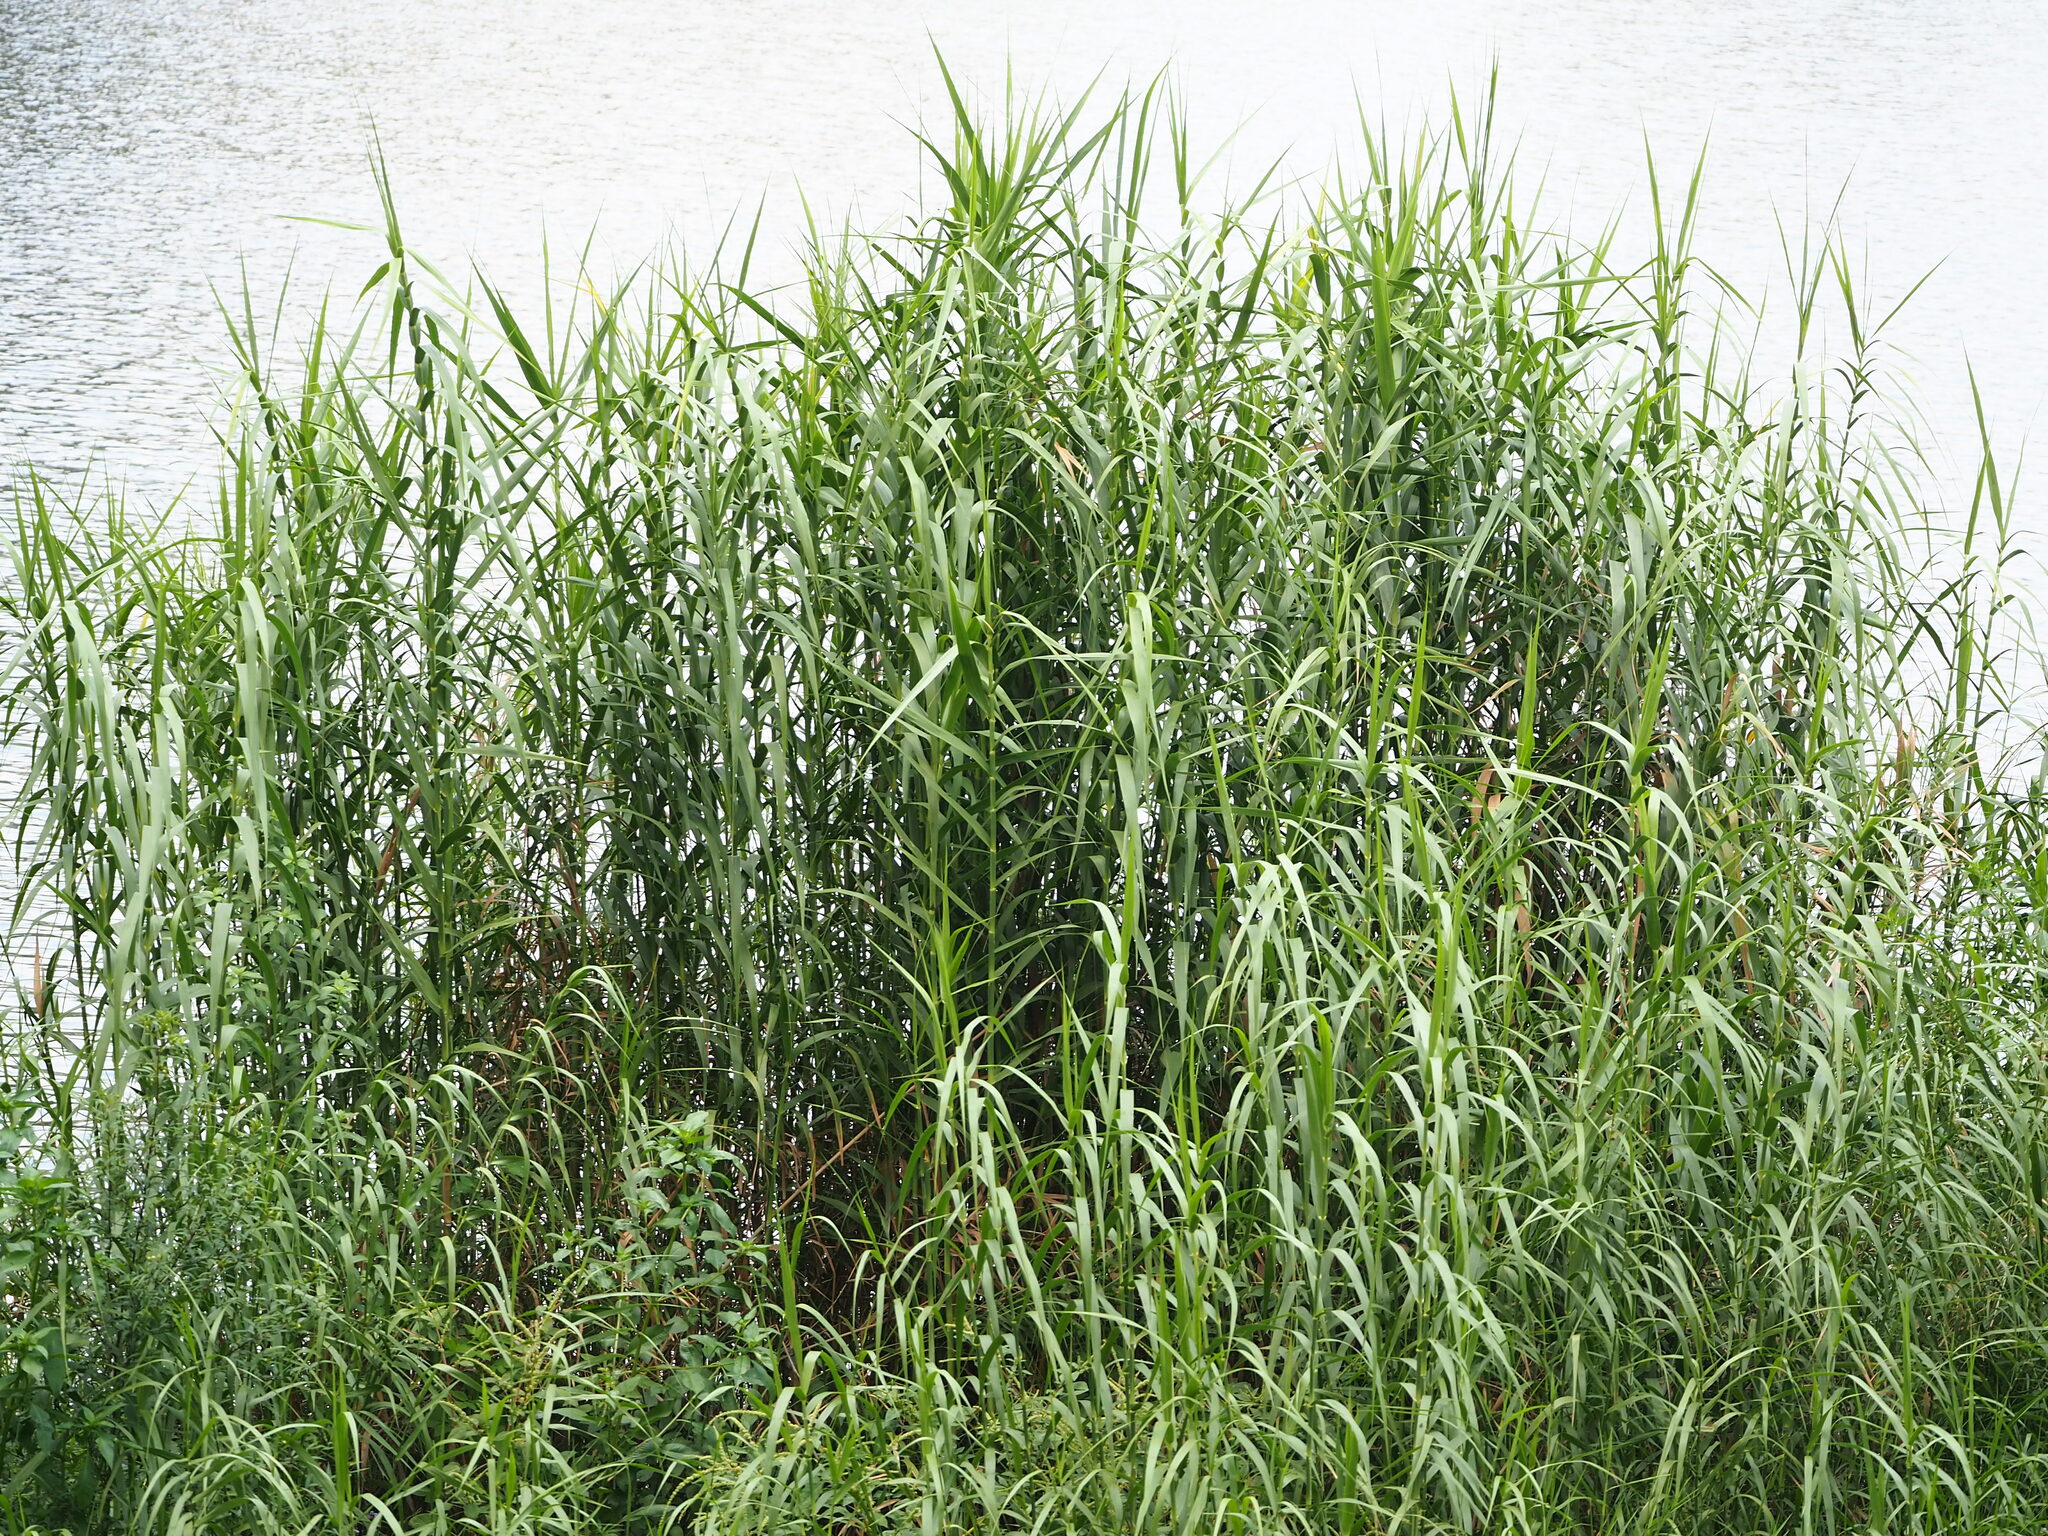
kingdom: Plantae
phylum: Tracheophyta
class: Liliopsida
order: Poales
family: Poaceae
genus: Cenchrus
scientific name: Cenchrus purpureus
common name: Elephant grass
